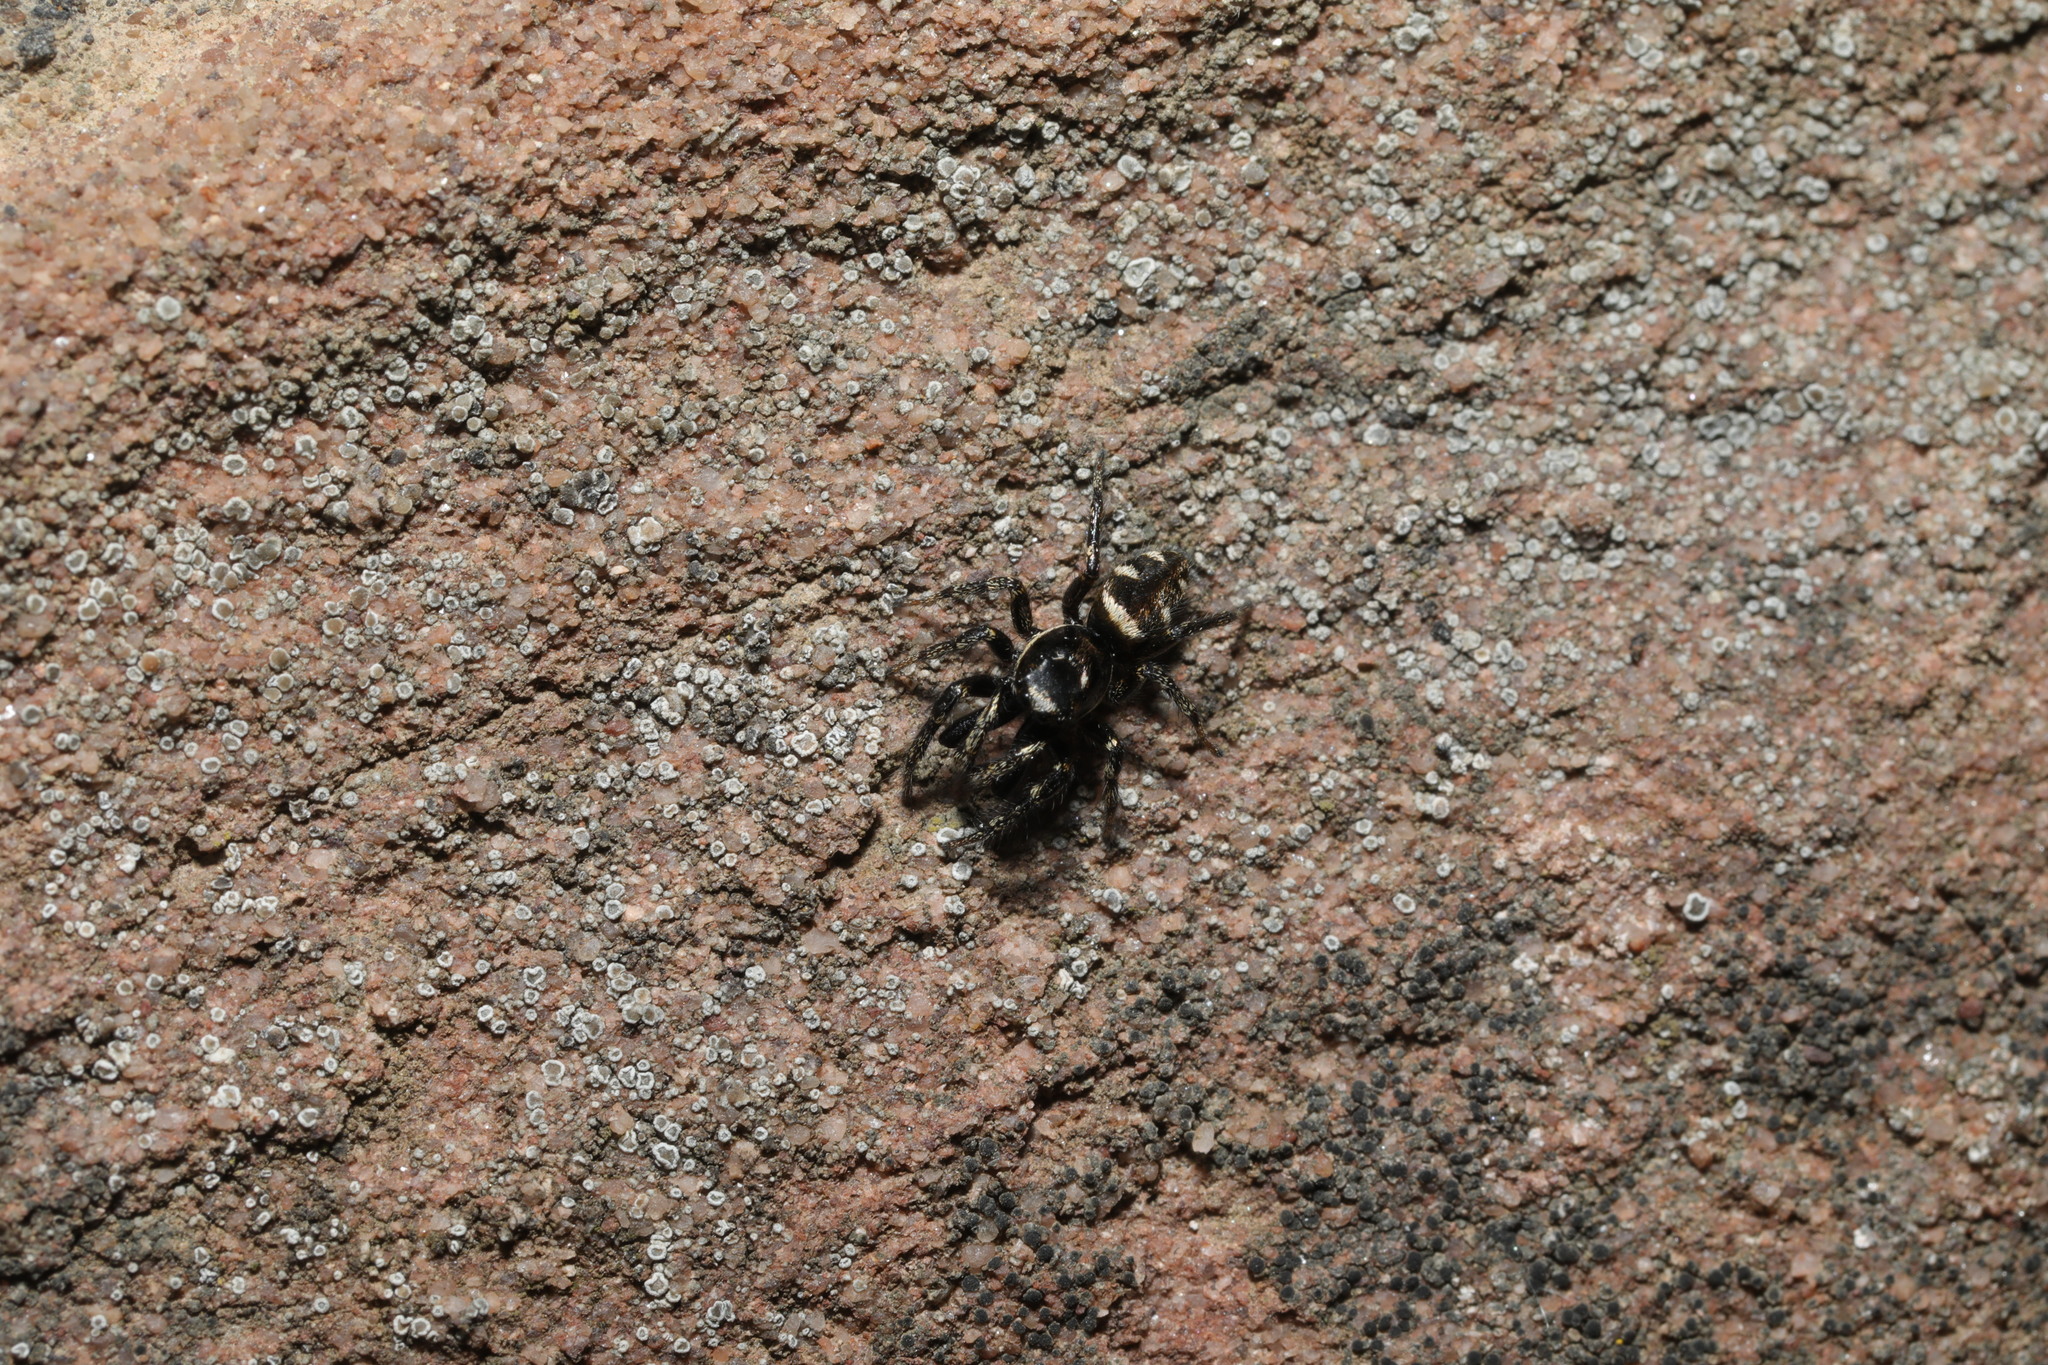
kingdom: Animalia
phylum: Arthropoda
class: Arachnida
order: Araneae
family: Salticidae
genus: Salticus
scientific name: Salticus scenicus
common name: Zebra jumper
